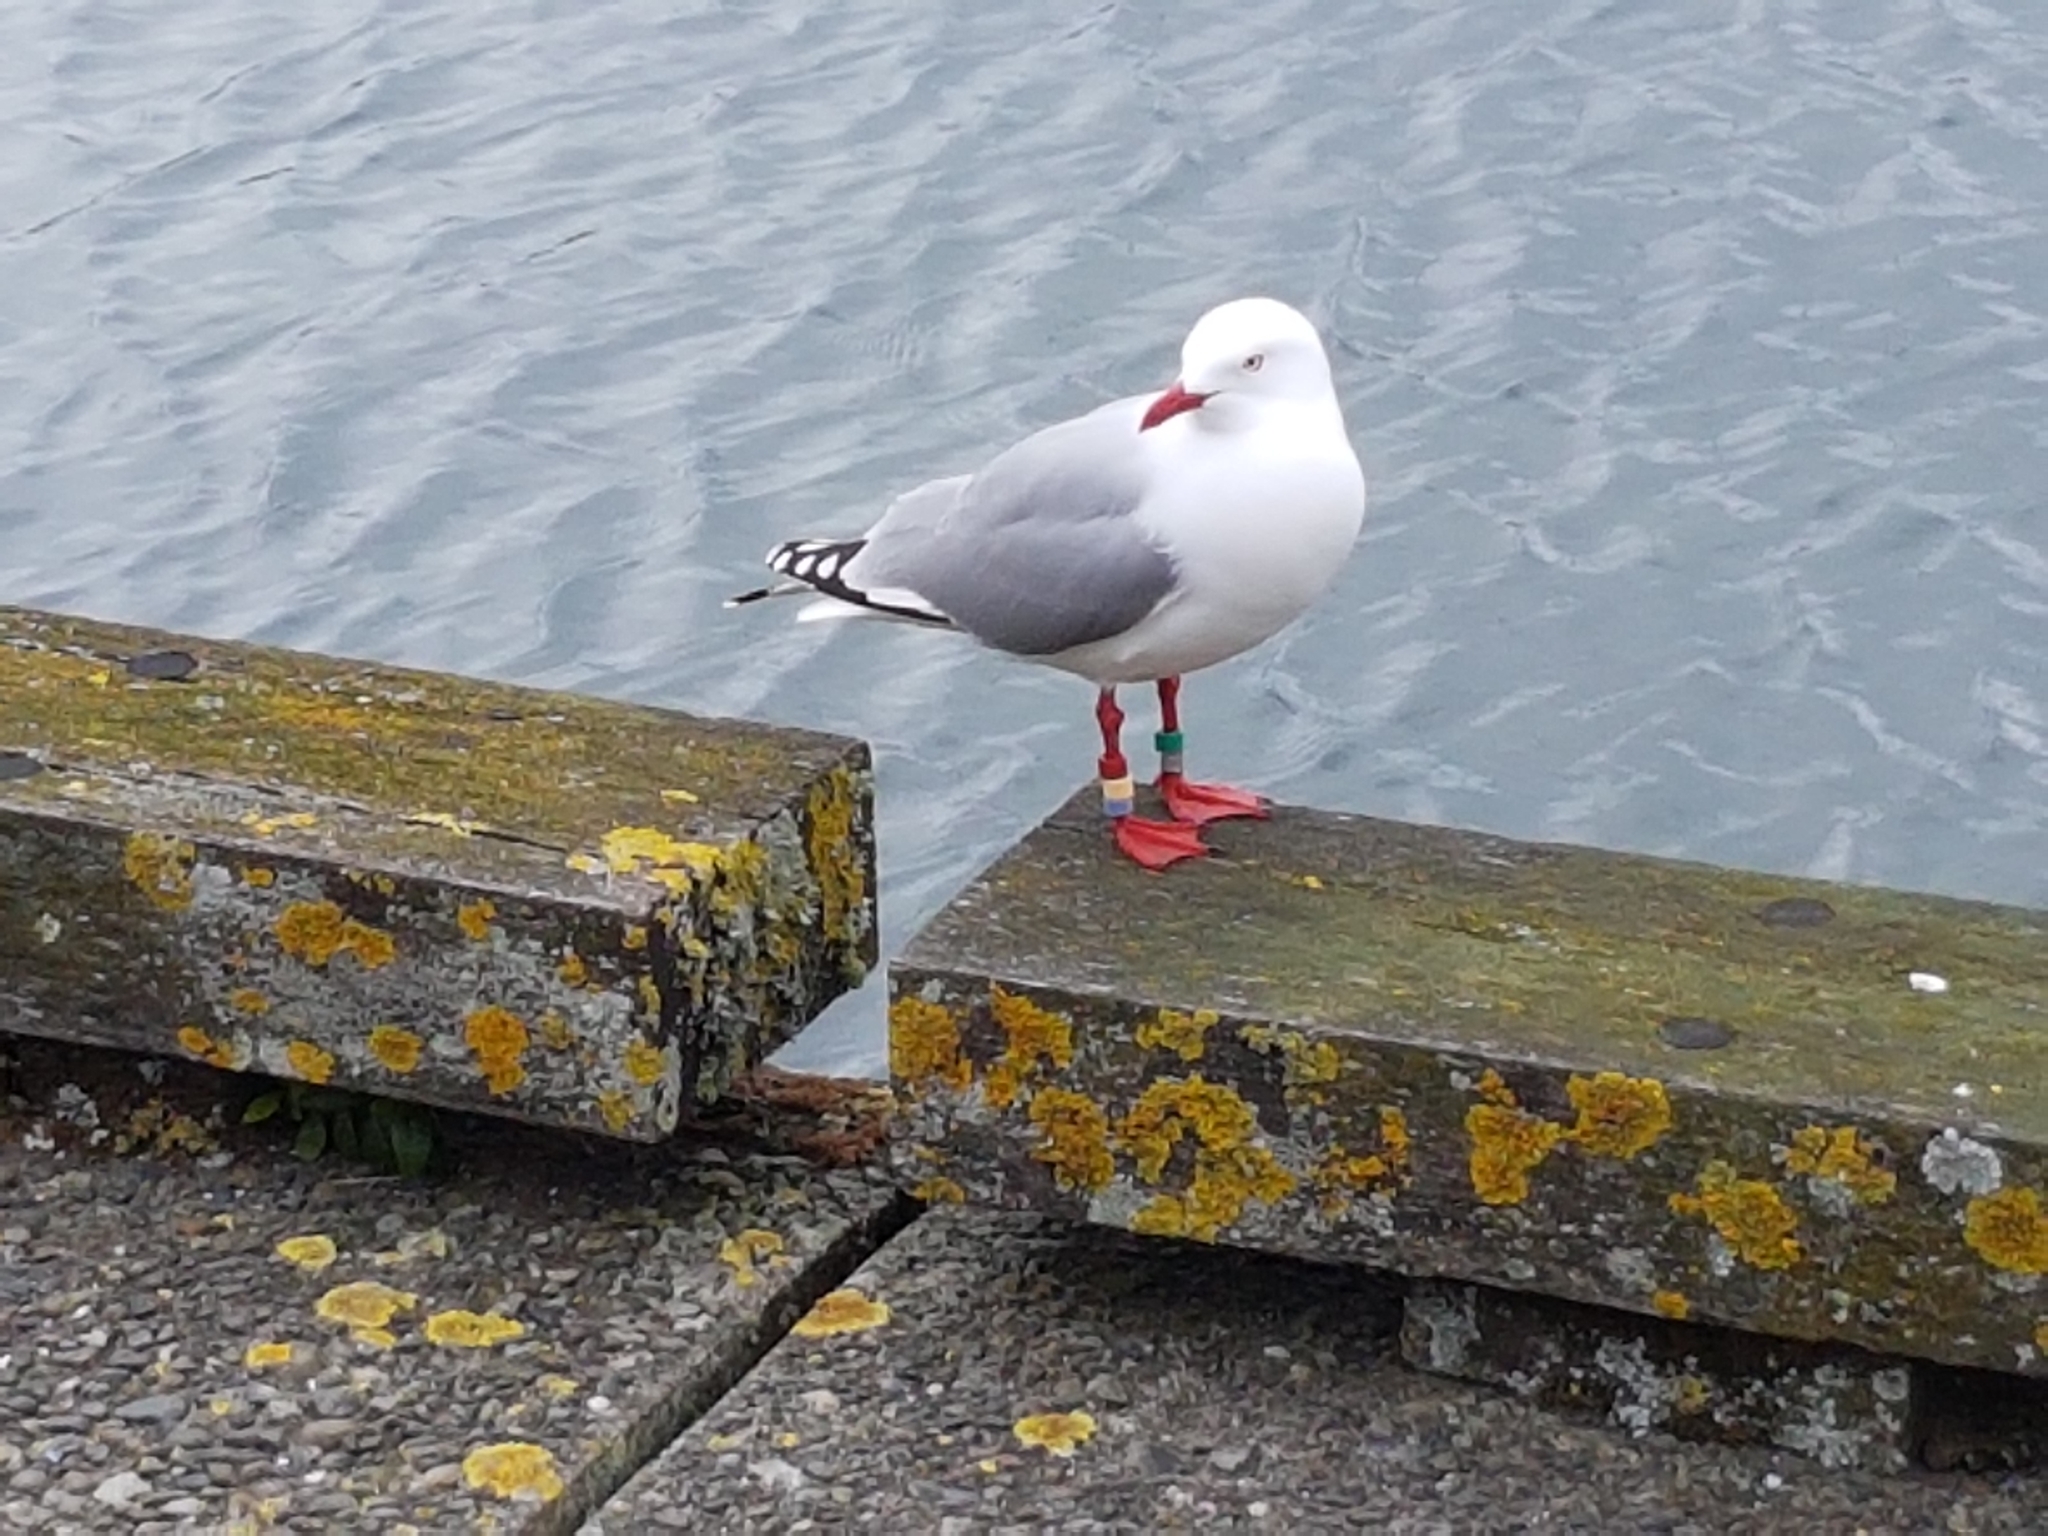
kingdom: Animalia
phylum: Chordata
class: Aves
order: Charadriiformes
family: Laridae
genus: Chroicocephalus
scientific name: Chroicocephalus novaehollandiae
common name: Silver gull
